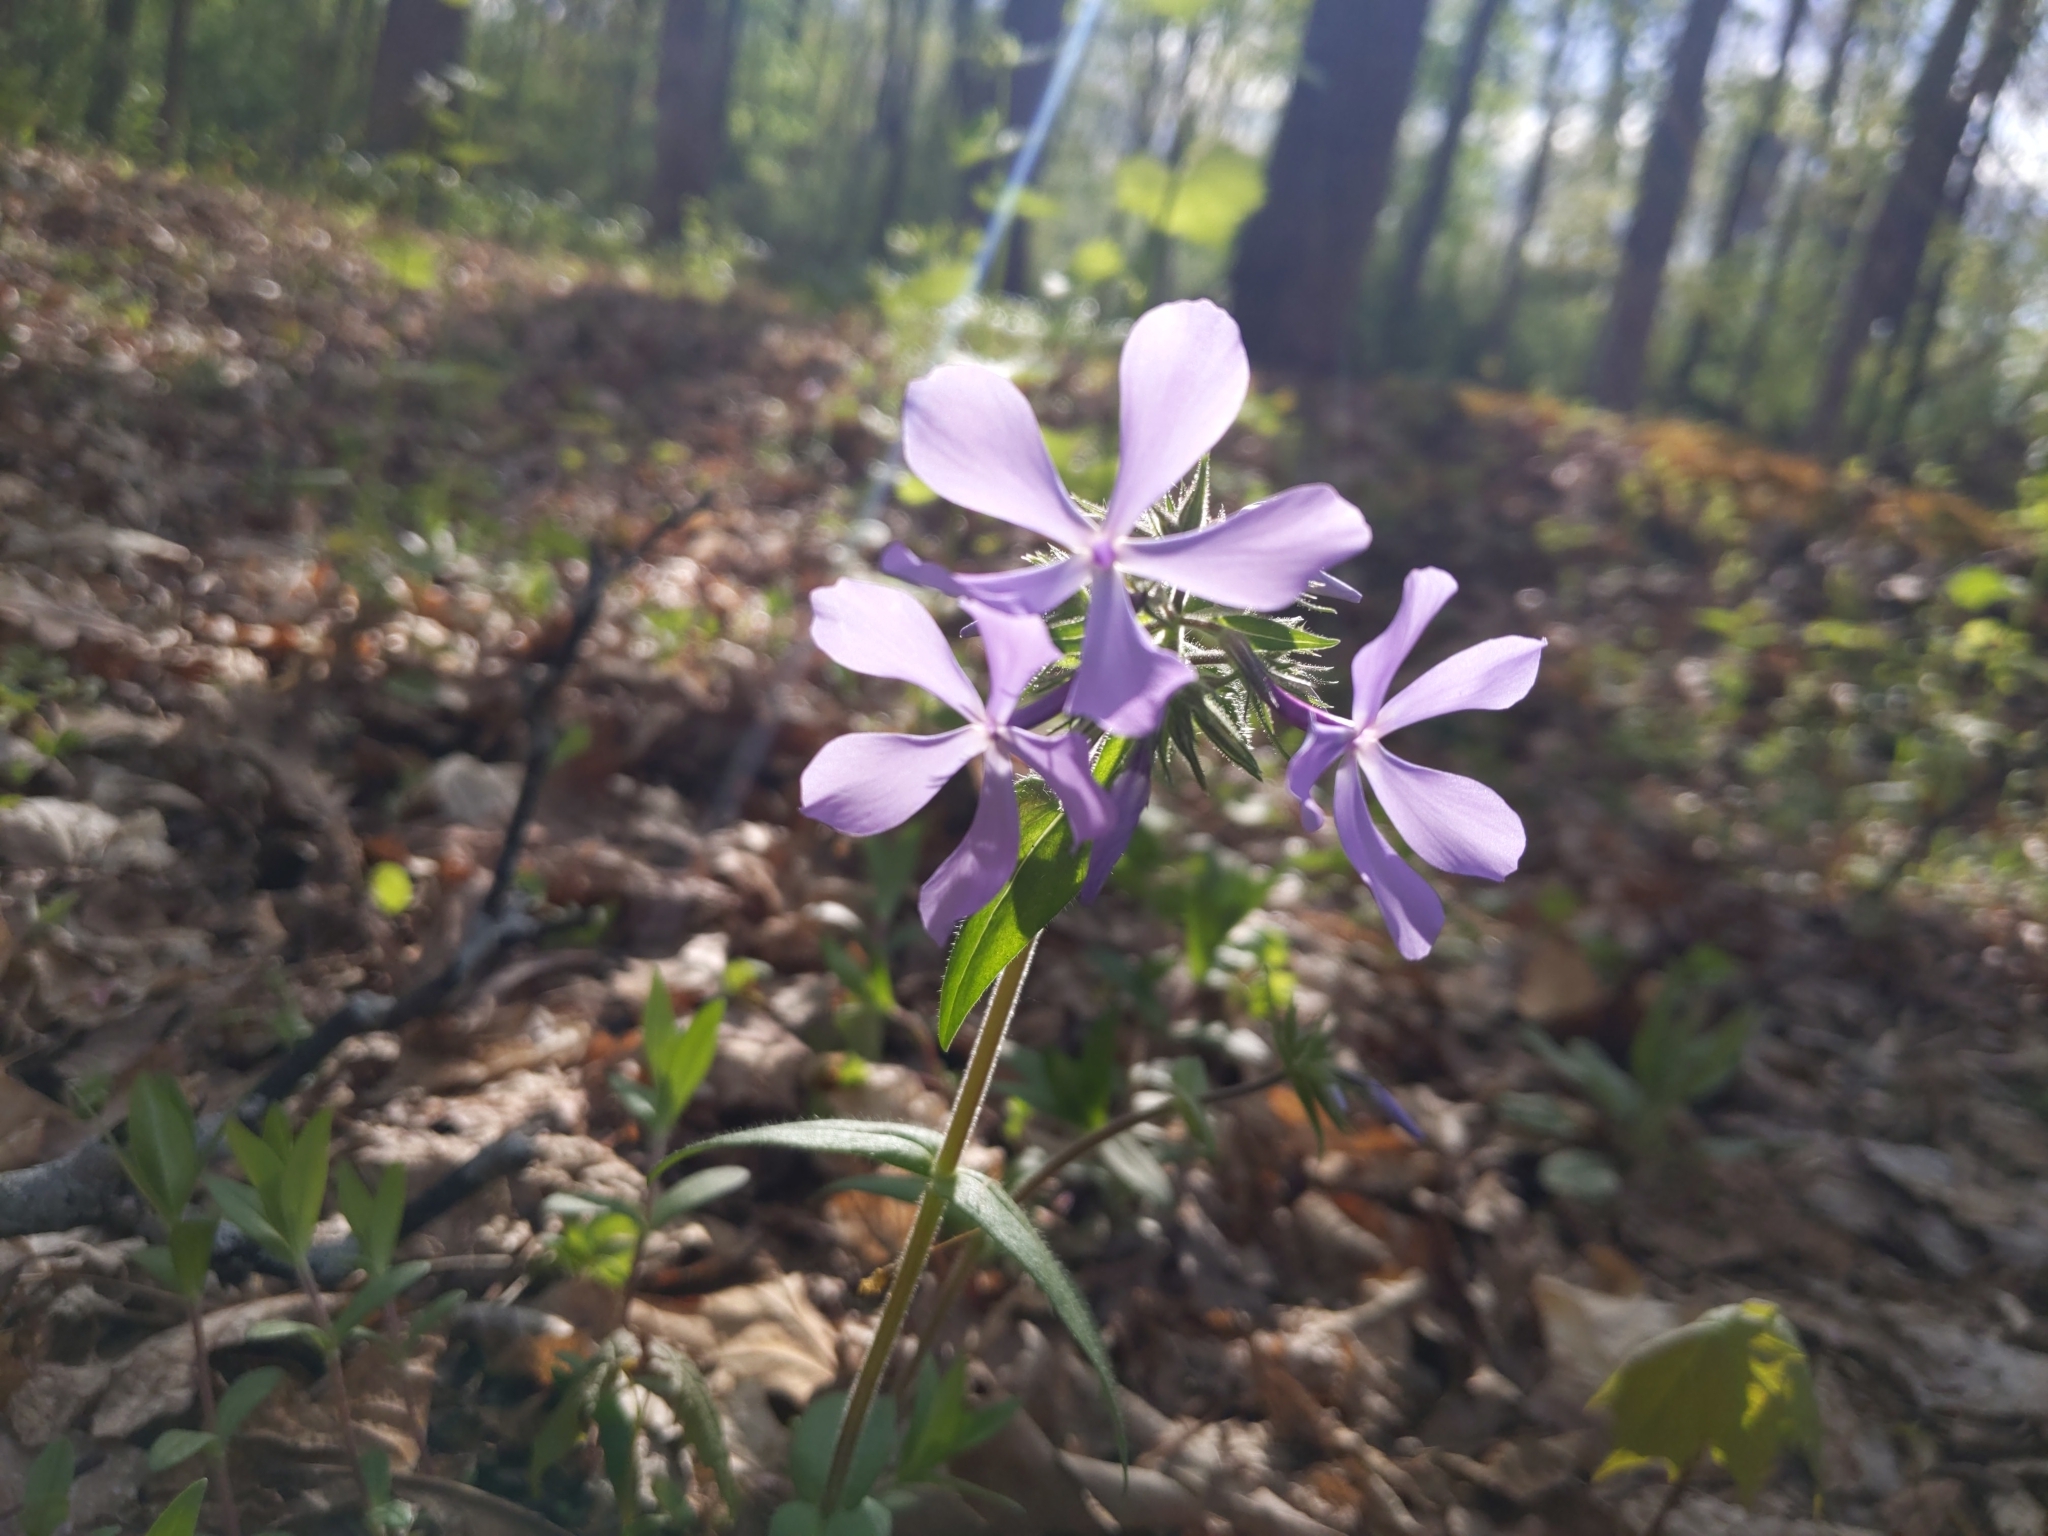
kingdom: Plantae
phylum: Tracheophyta
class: Magnoliopsida
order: Ericales
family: Polemoniaceae
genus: Phlox
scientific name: Phlox divaricata
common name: Blue phlox
